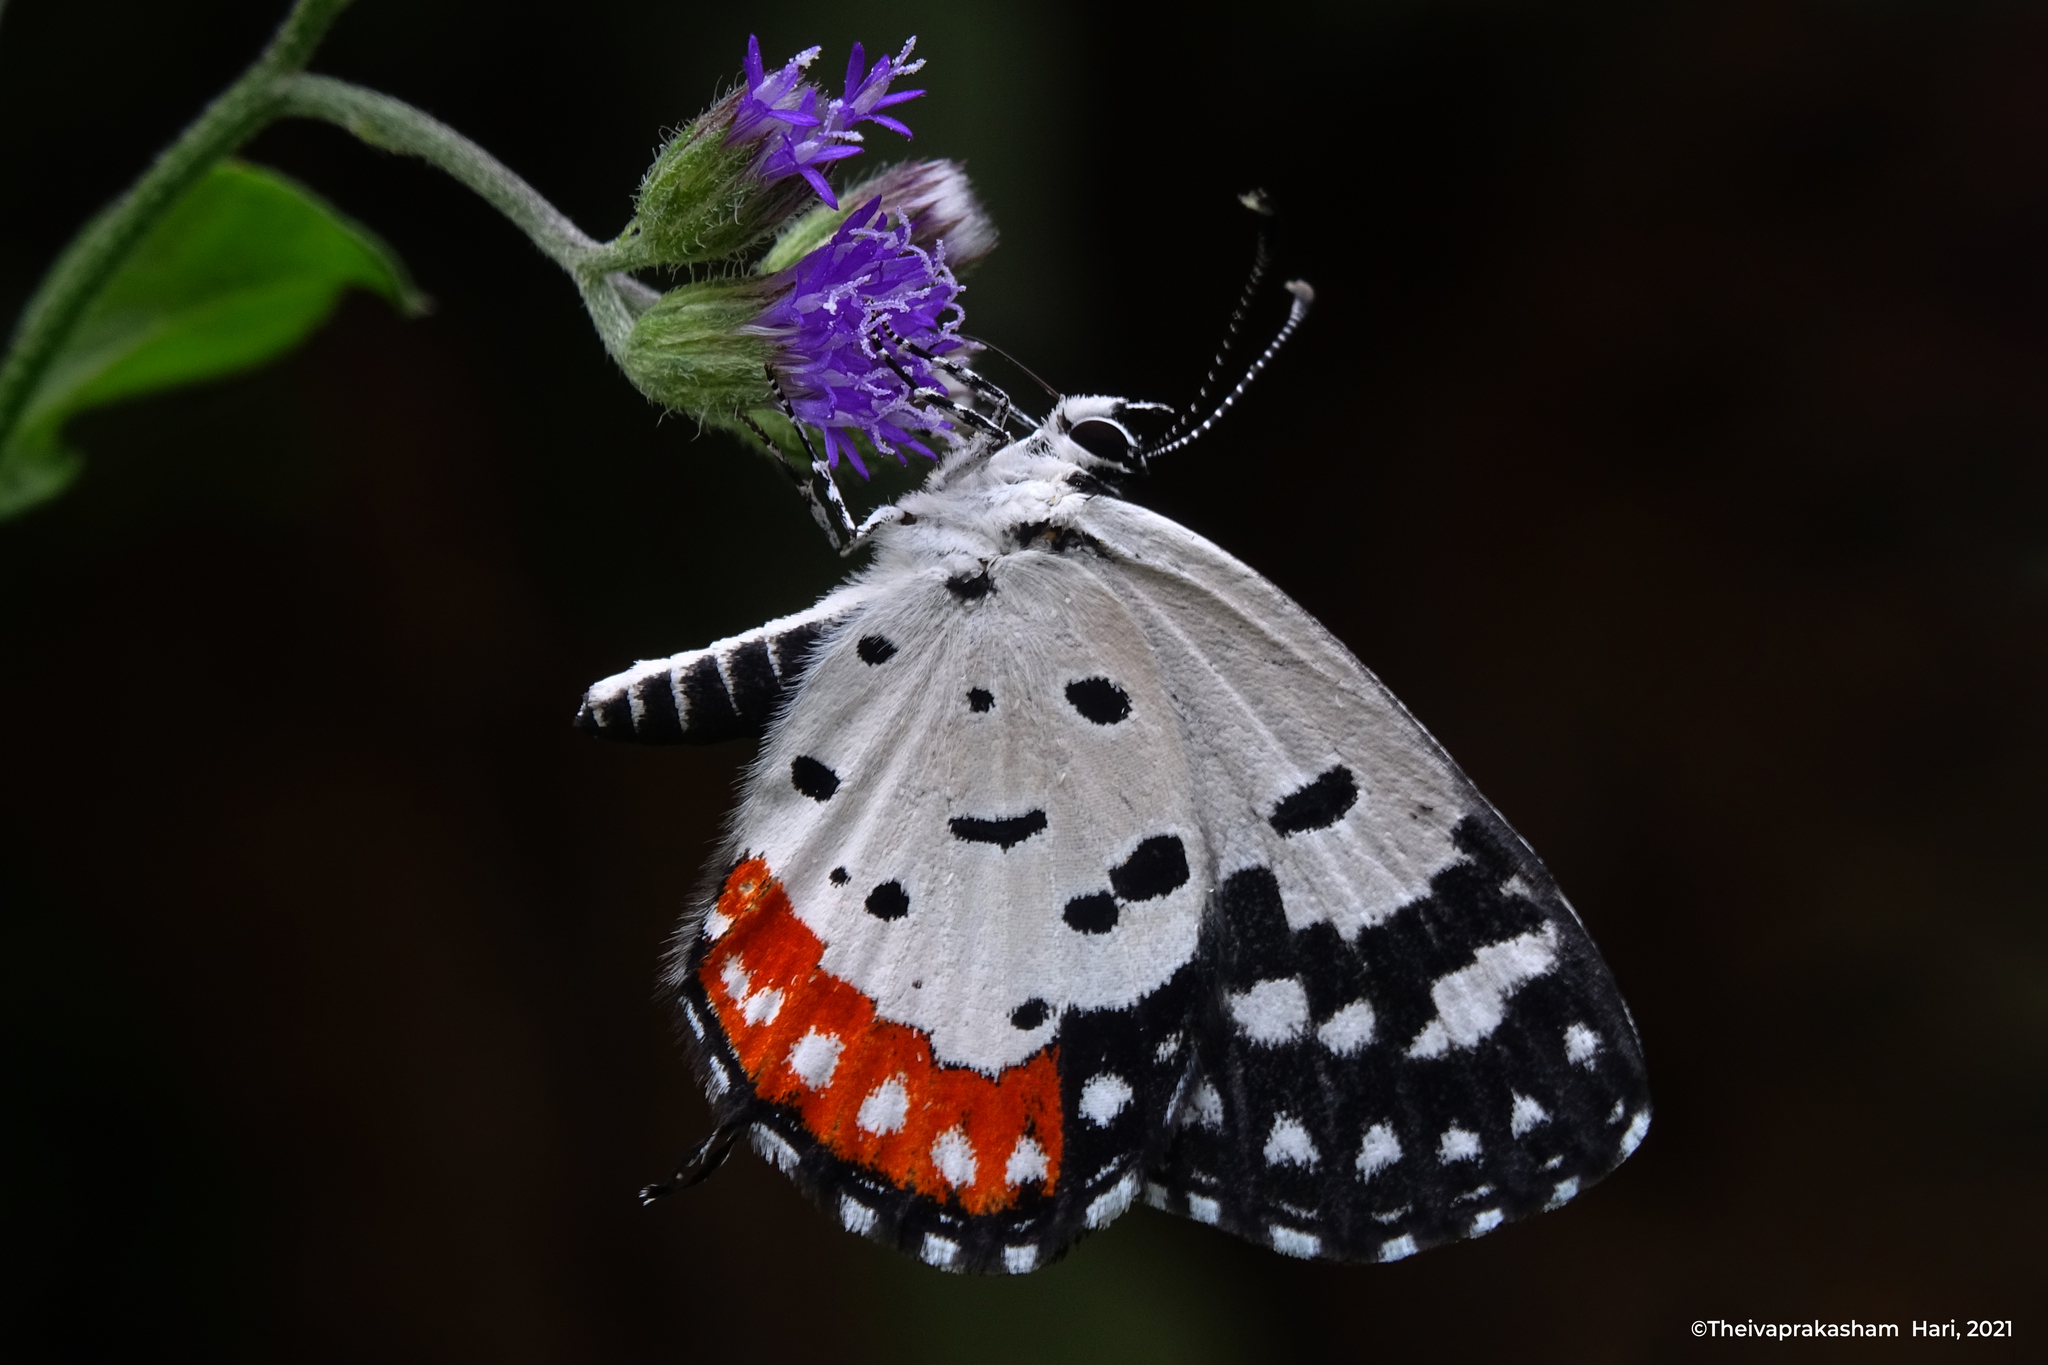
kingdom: Animalia
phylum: Arthropoda
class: Insecta
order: Lepidoptera
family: Lycaenidae
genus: Talicada
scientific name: Talicada nyseus
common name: Red pierrot
